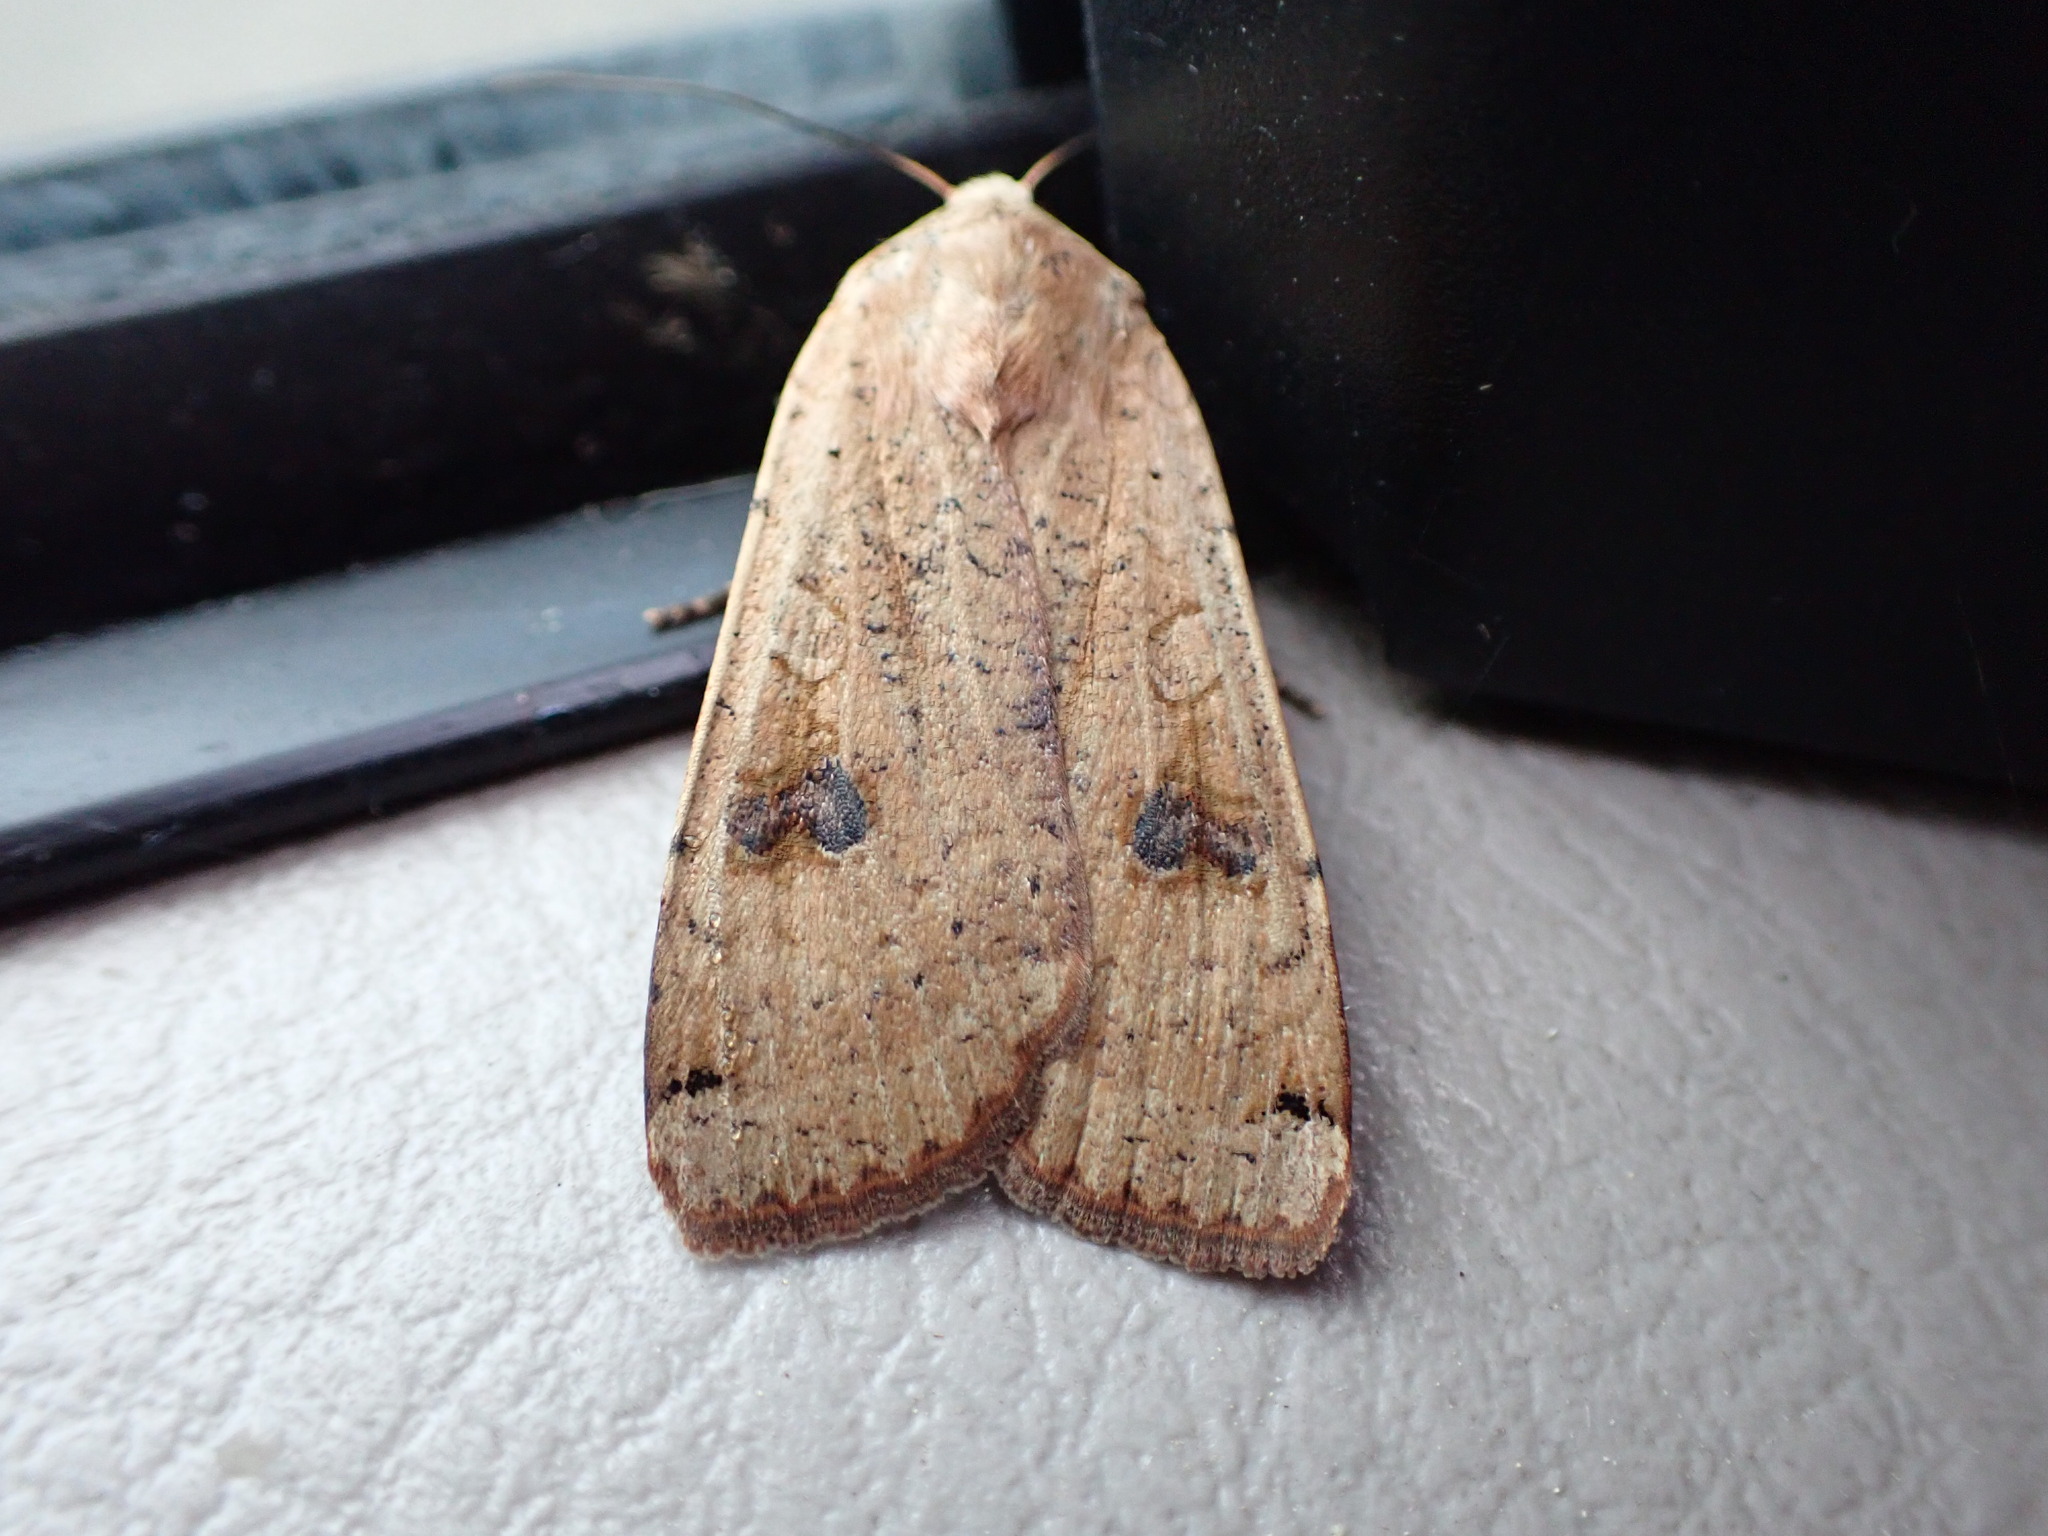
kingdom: Animalia
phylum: Arthropoda
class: Insecta
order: Lepidoptera
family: Noctuidae
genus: Noctua
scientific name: Noctua pronuba
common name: Large yellow underwing
